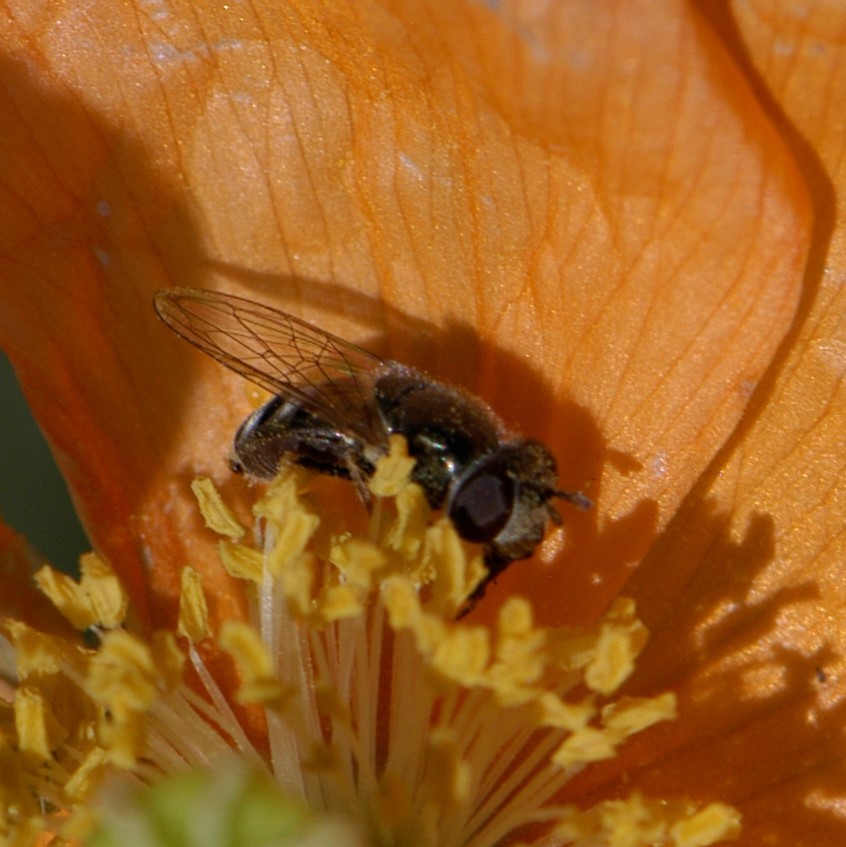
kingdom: Animalia
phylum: Arthropoda
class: Insecta
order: Diptera
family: Syrphidae
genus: Platycheirus
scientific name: Platycheirus
